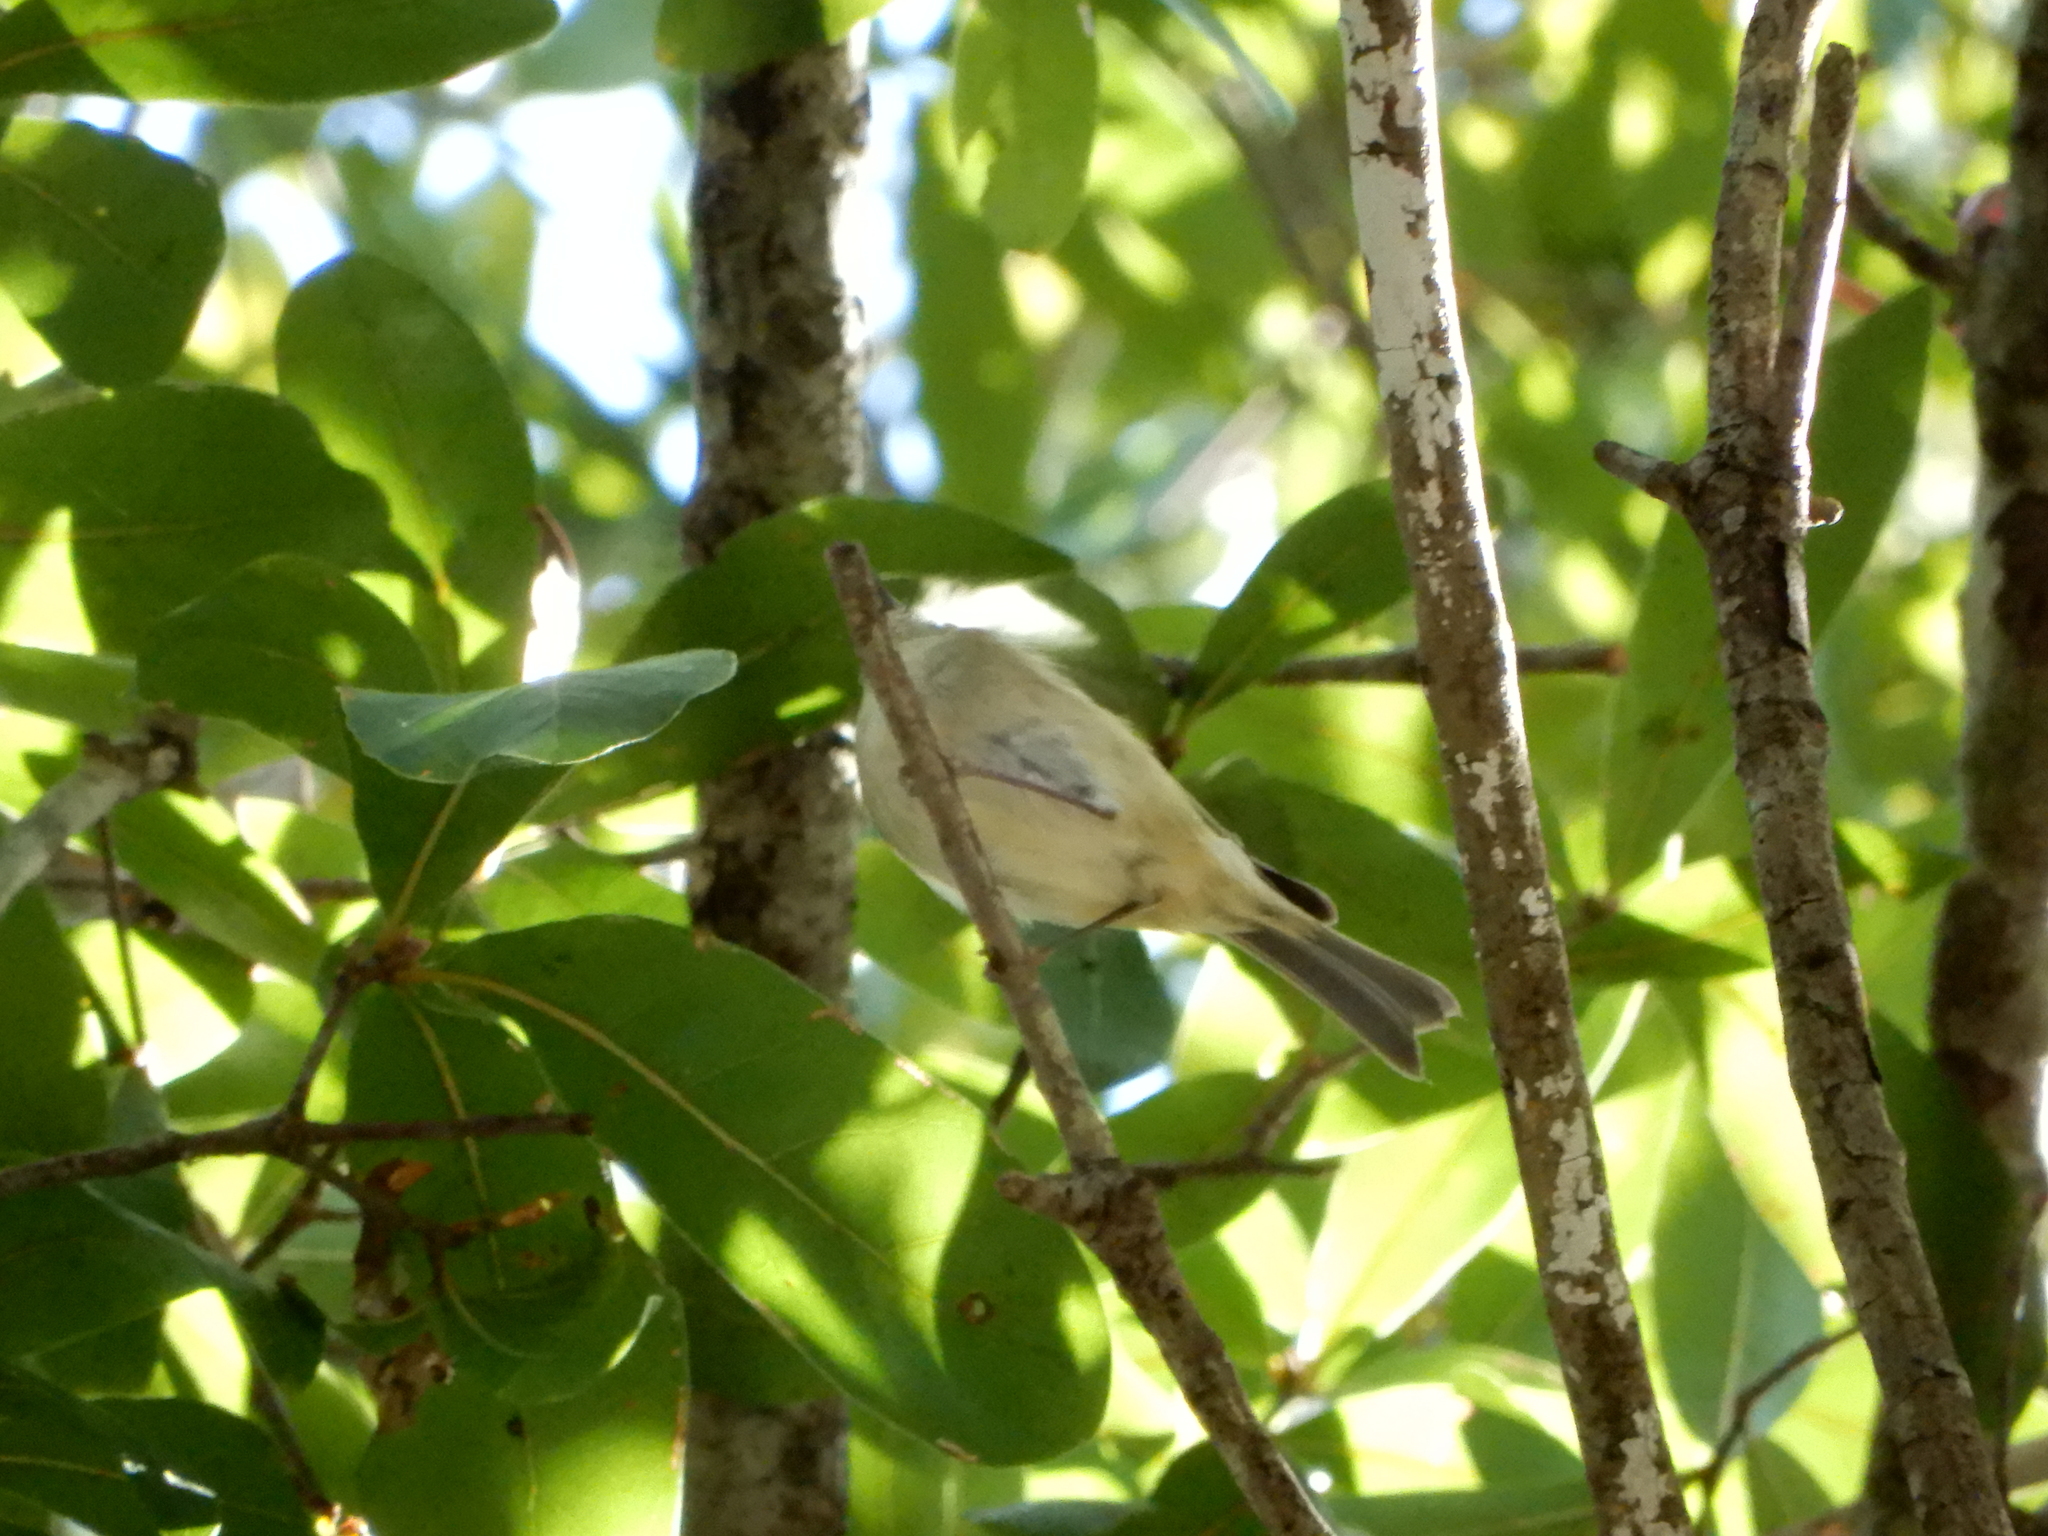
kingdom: Animalia
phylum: Chordata
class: Aves
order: Passeriformes
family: Regulidae
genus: Regulus
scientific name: Regulus calendula
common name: Ruby-crowned kinglet
